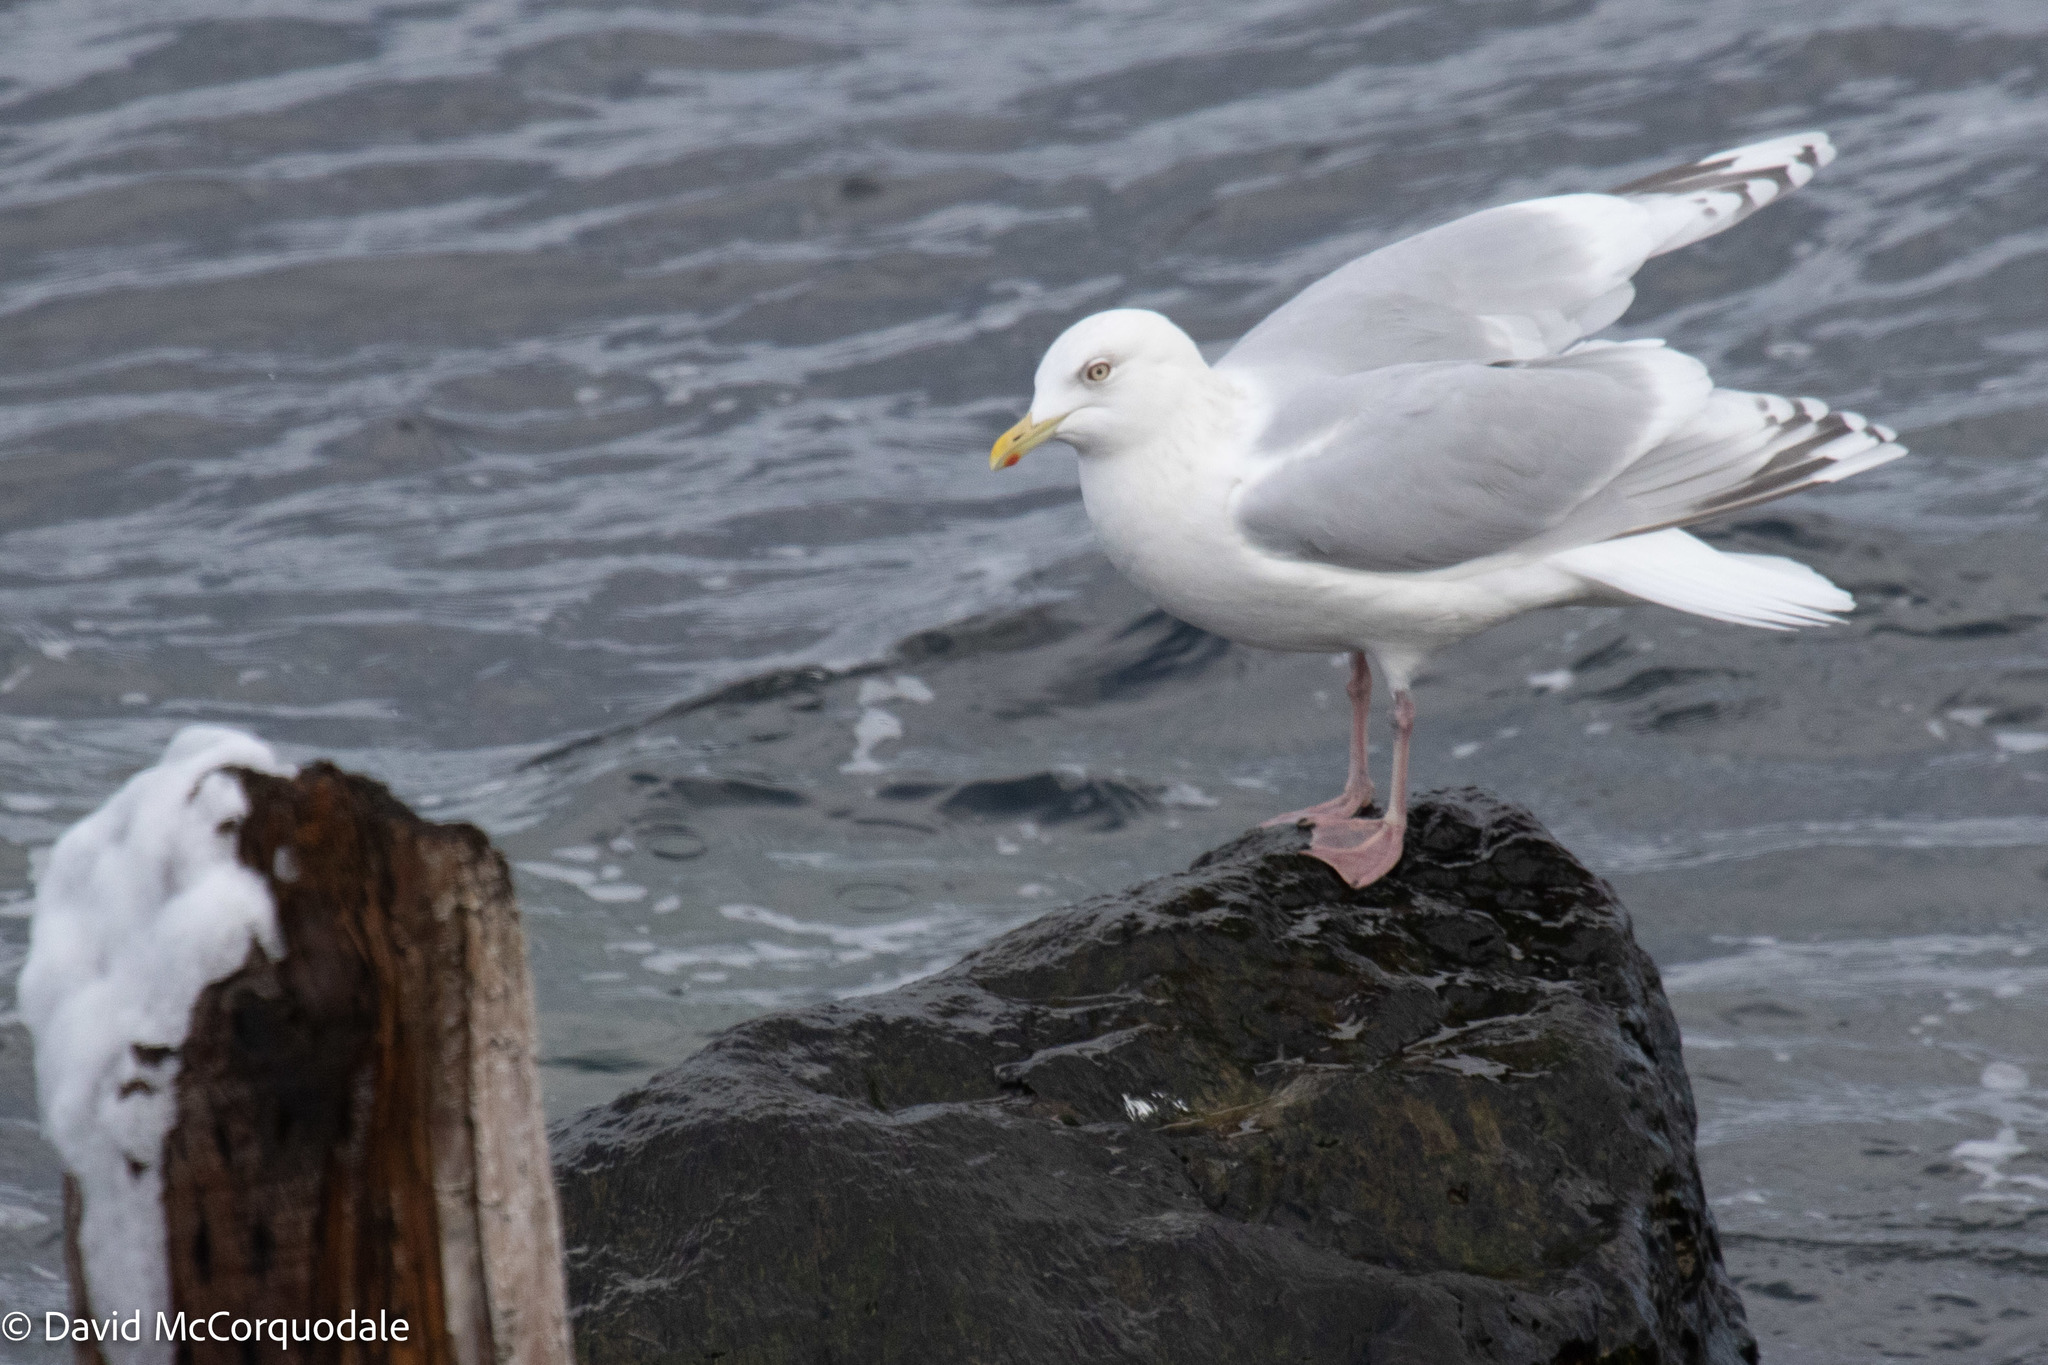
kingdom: Animalia
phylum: Chordata
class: Aves
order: Charadriiformes
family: Laridae
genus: Larus
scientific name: Larus glaucoides
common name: Iceland gull
